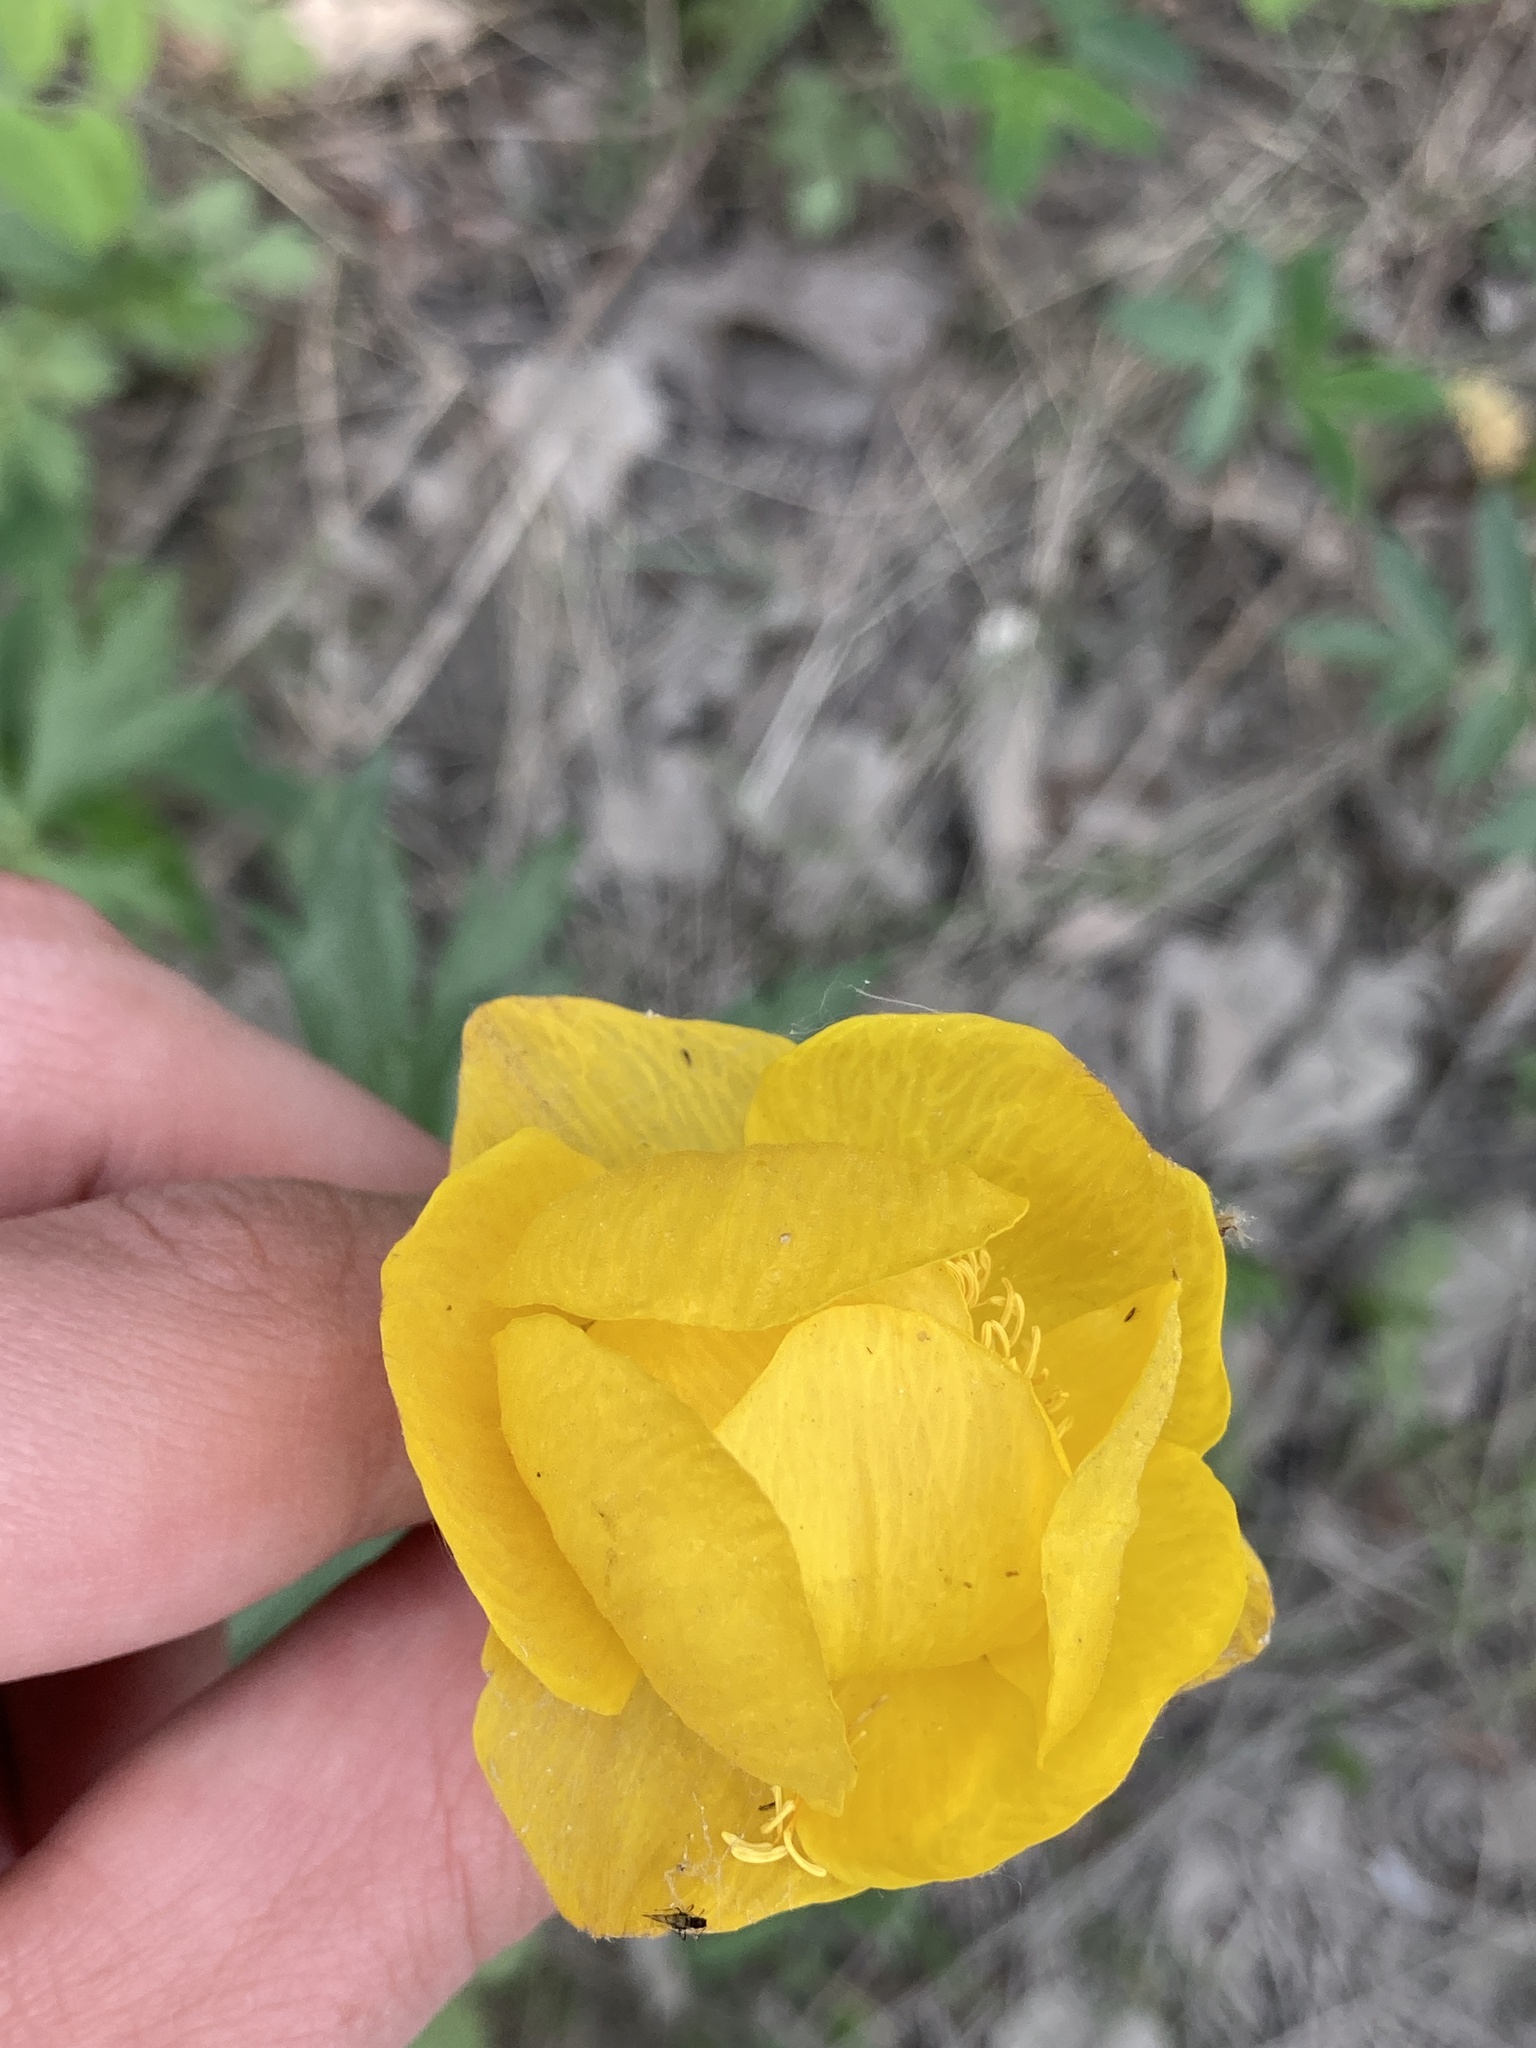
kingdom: Plantae
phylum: Tracheophyta
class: Magnoliopsida
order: Ranunculales
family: Ranunculaceae
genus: Trollius
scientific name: Trollius europaeus
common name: European globeflower
